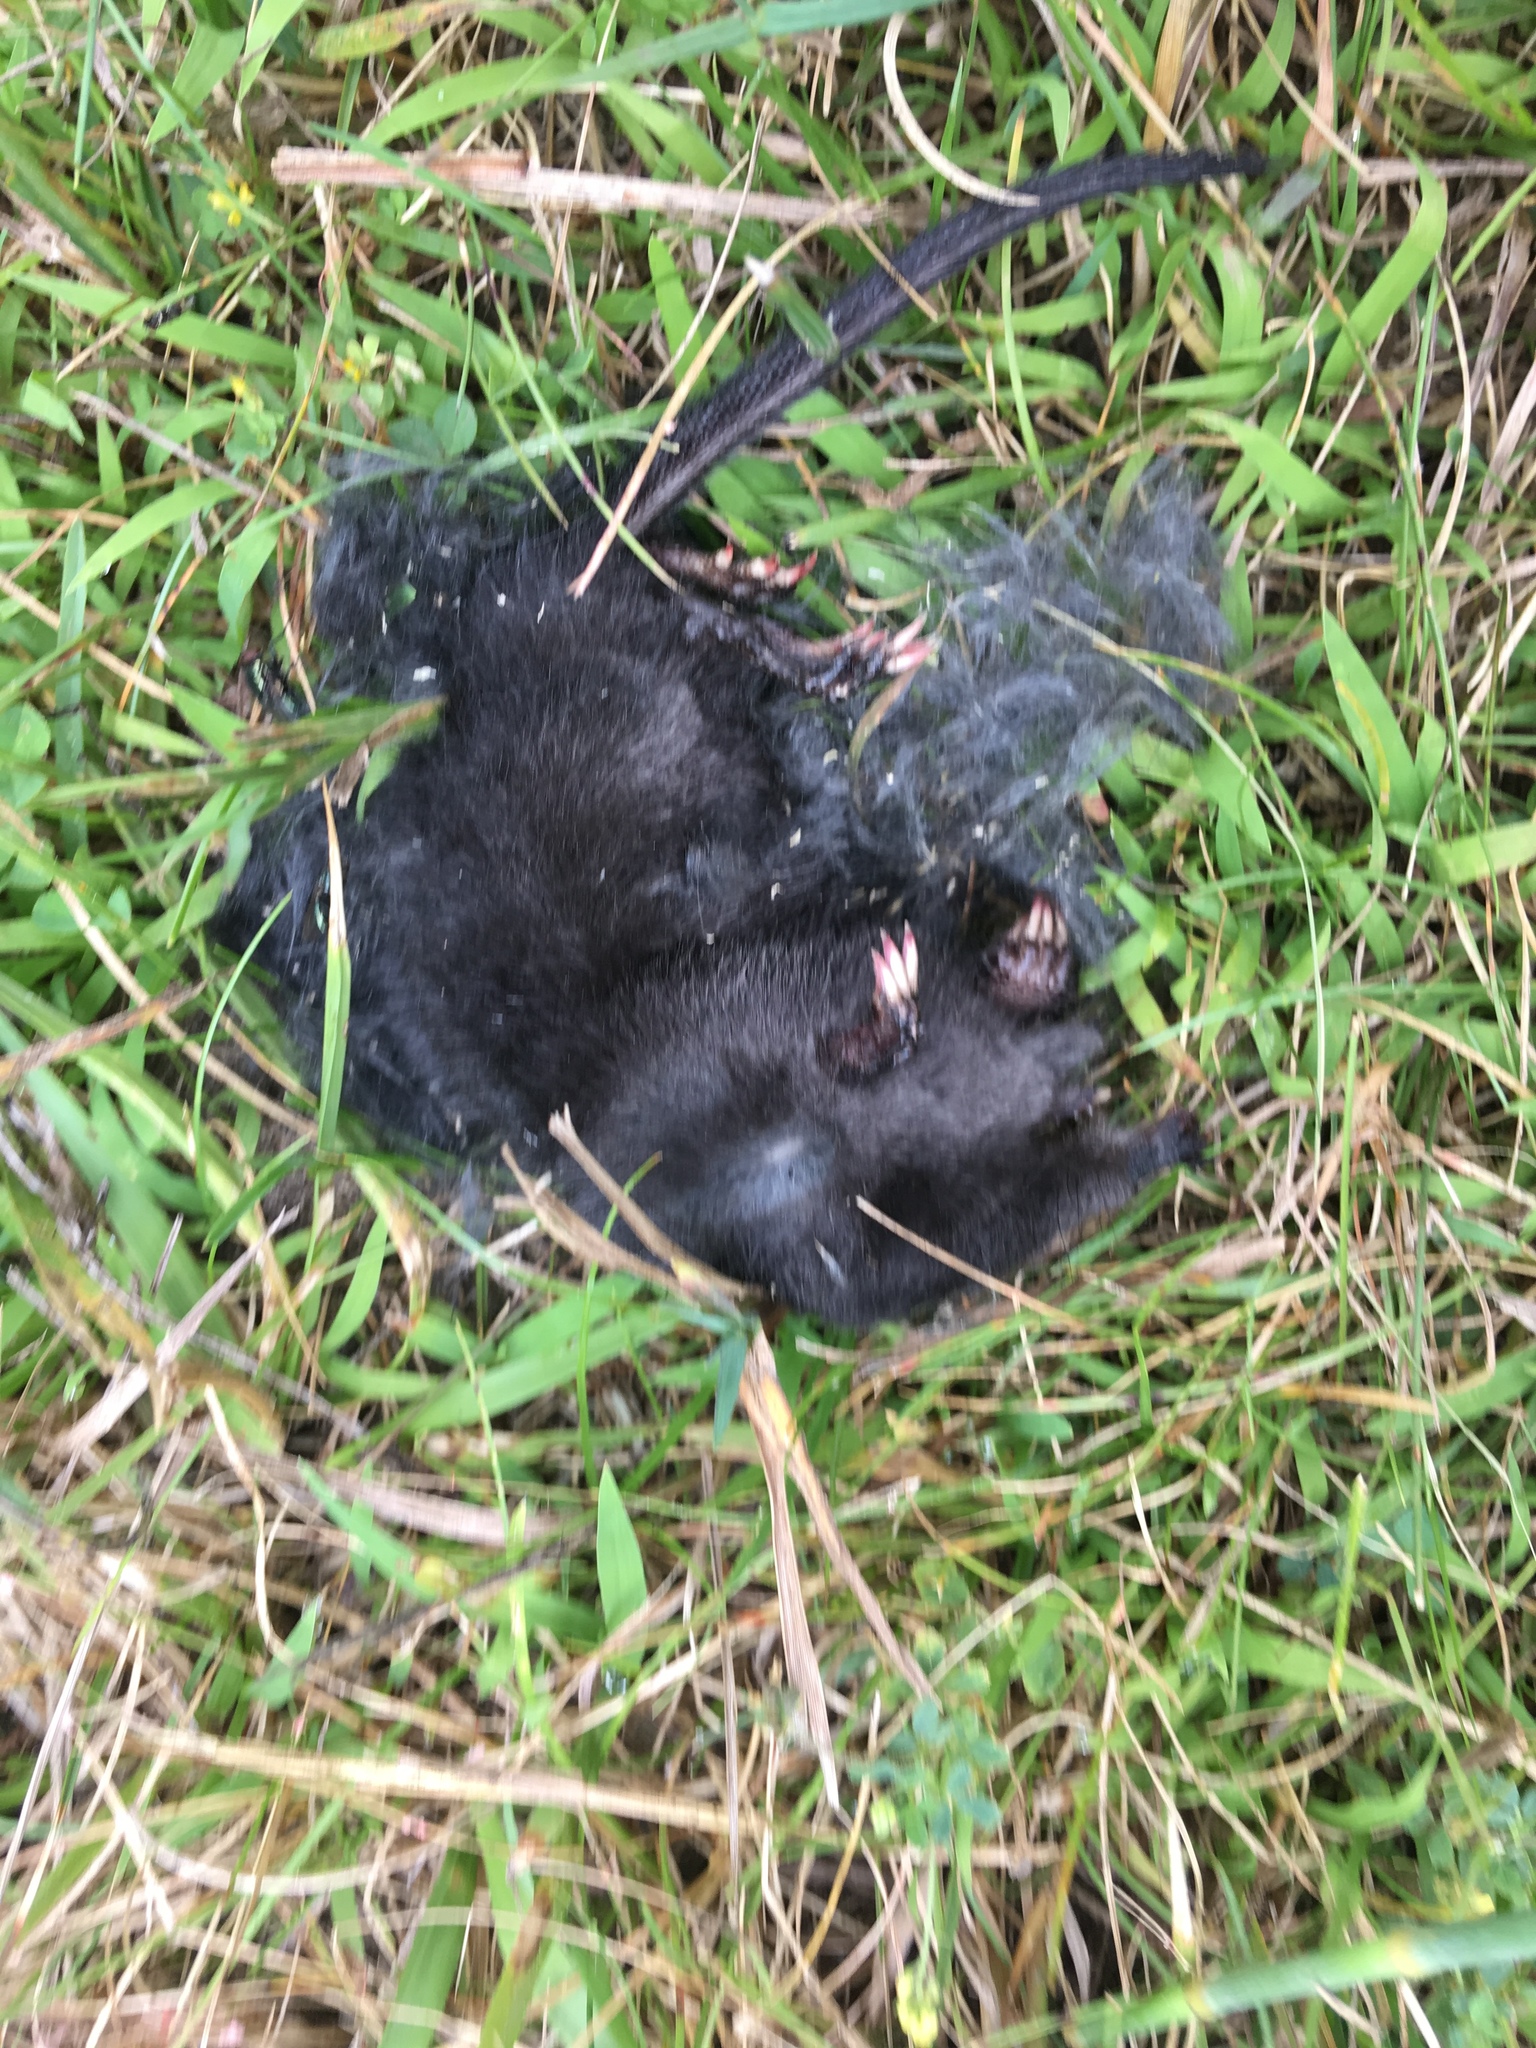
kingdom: Animalia
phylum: Chordata
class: Mammalia
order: Soricomorpha
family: Talpidae
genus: Condylura
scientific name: Condylura cristata
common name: Star-nosed mole
